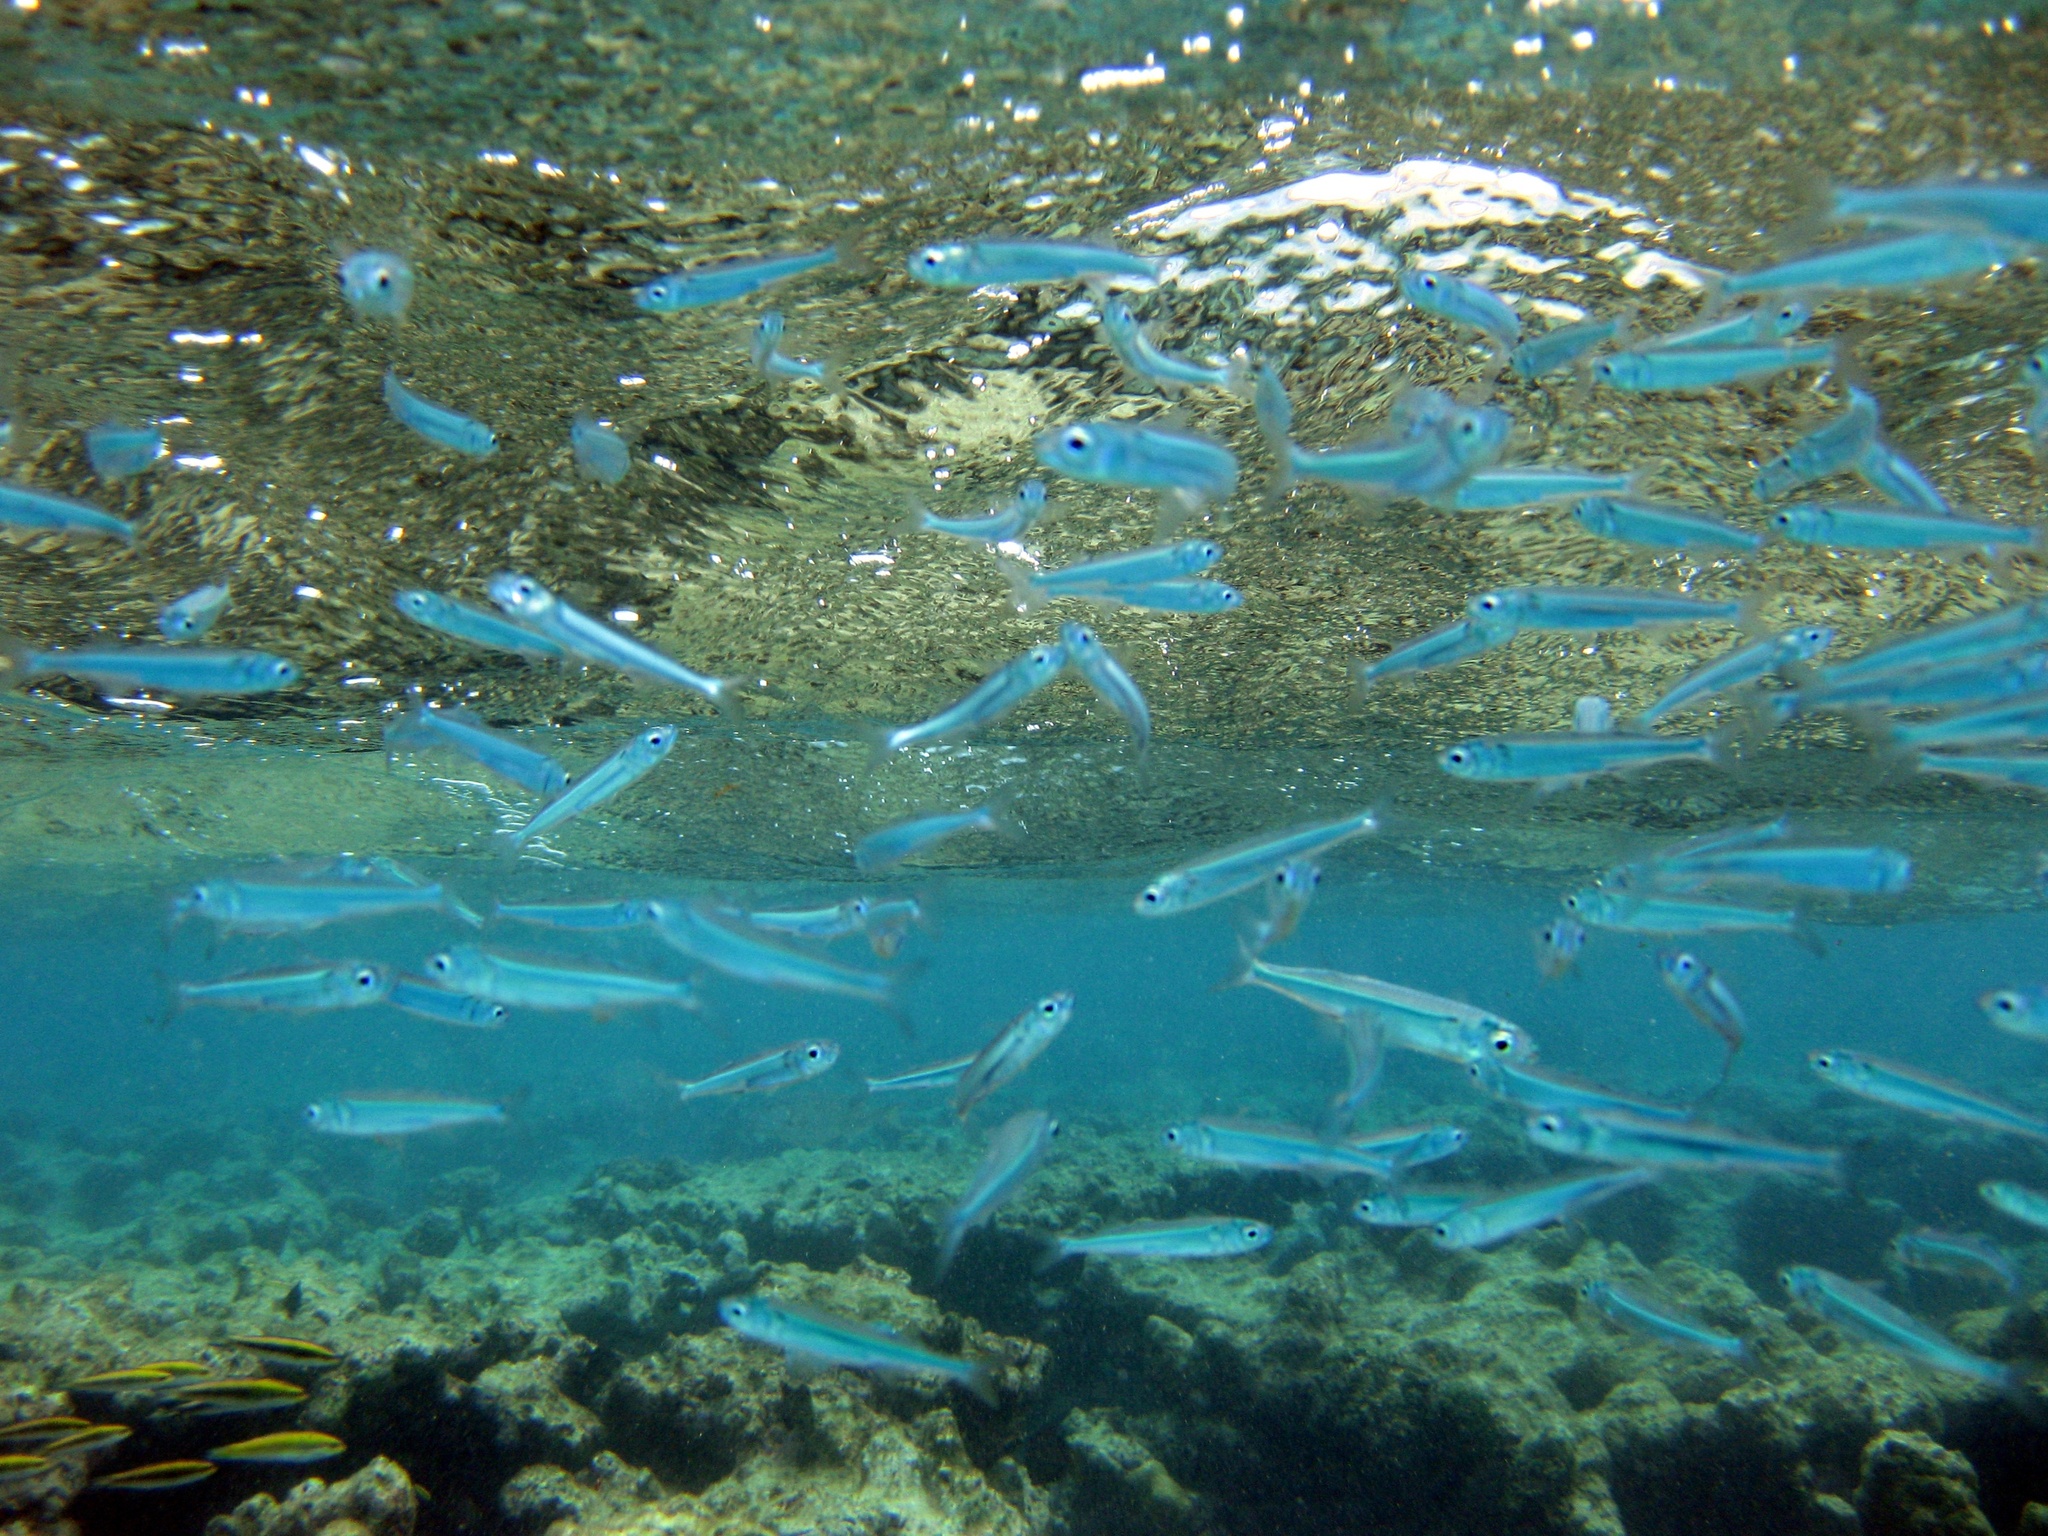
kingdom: Animalia
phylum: Chordata
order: Atheriniformes
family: Atherinidae
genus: Hypoatherina
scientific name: Hypoatherina harringtonensis
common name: Reef silverside
